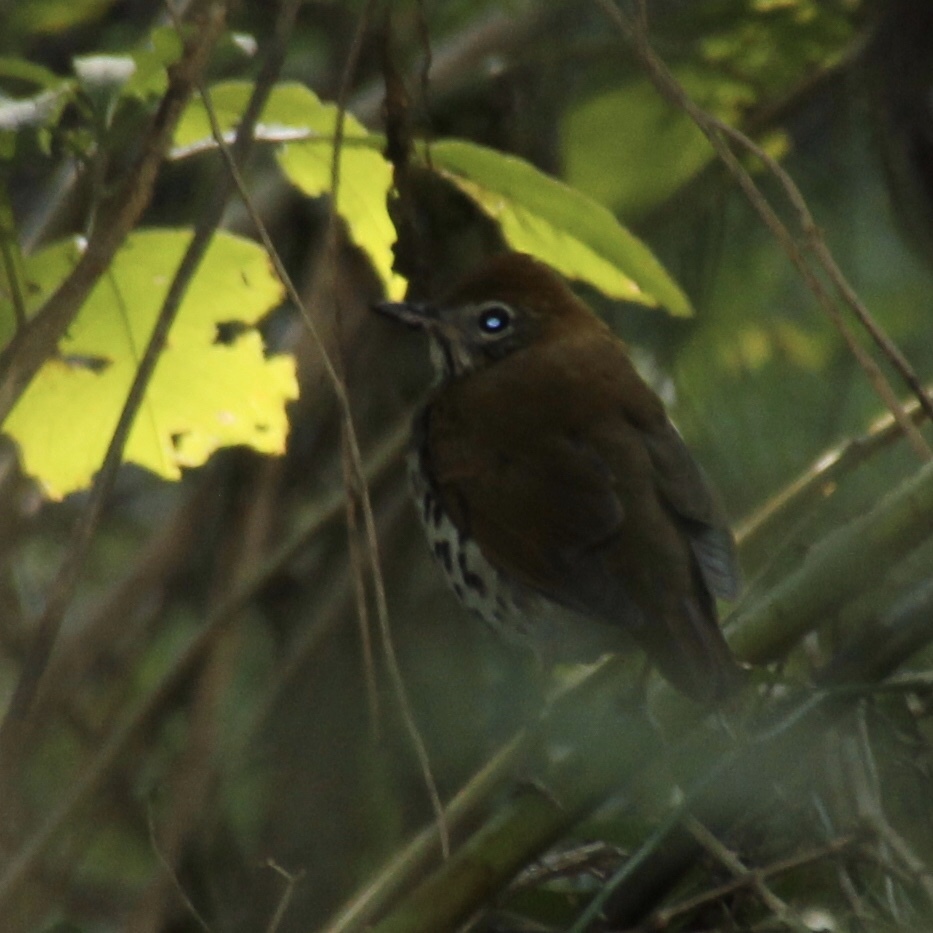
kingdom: Animalia
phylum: Chordata
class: Aves
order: Passeriformes
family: Turdidae
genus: Hylocichla
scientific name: Hylocichla mustelina
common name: Wood thrush
